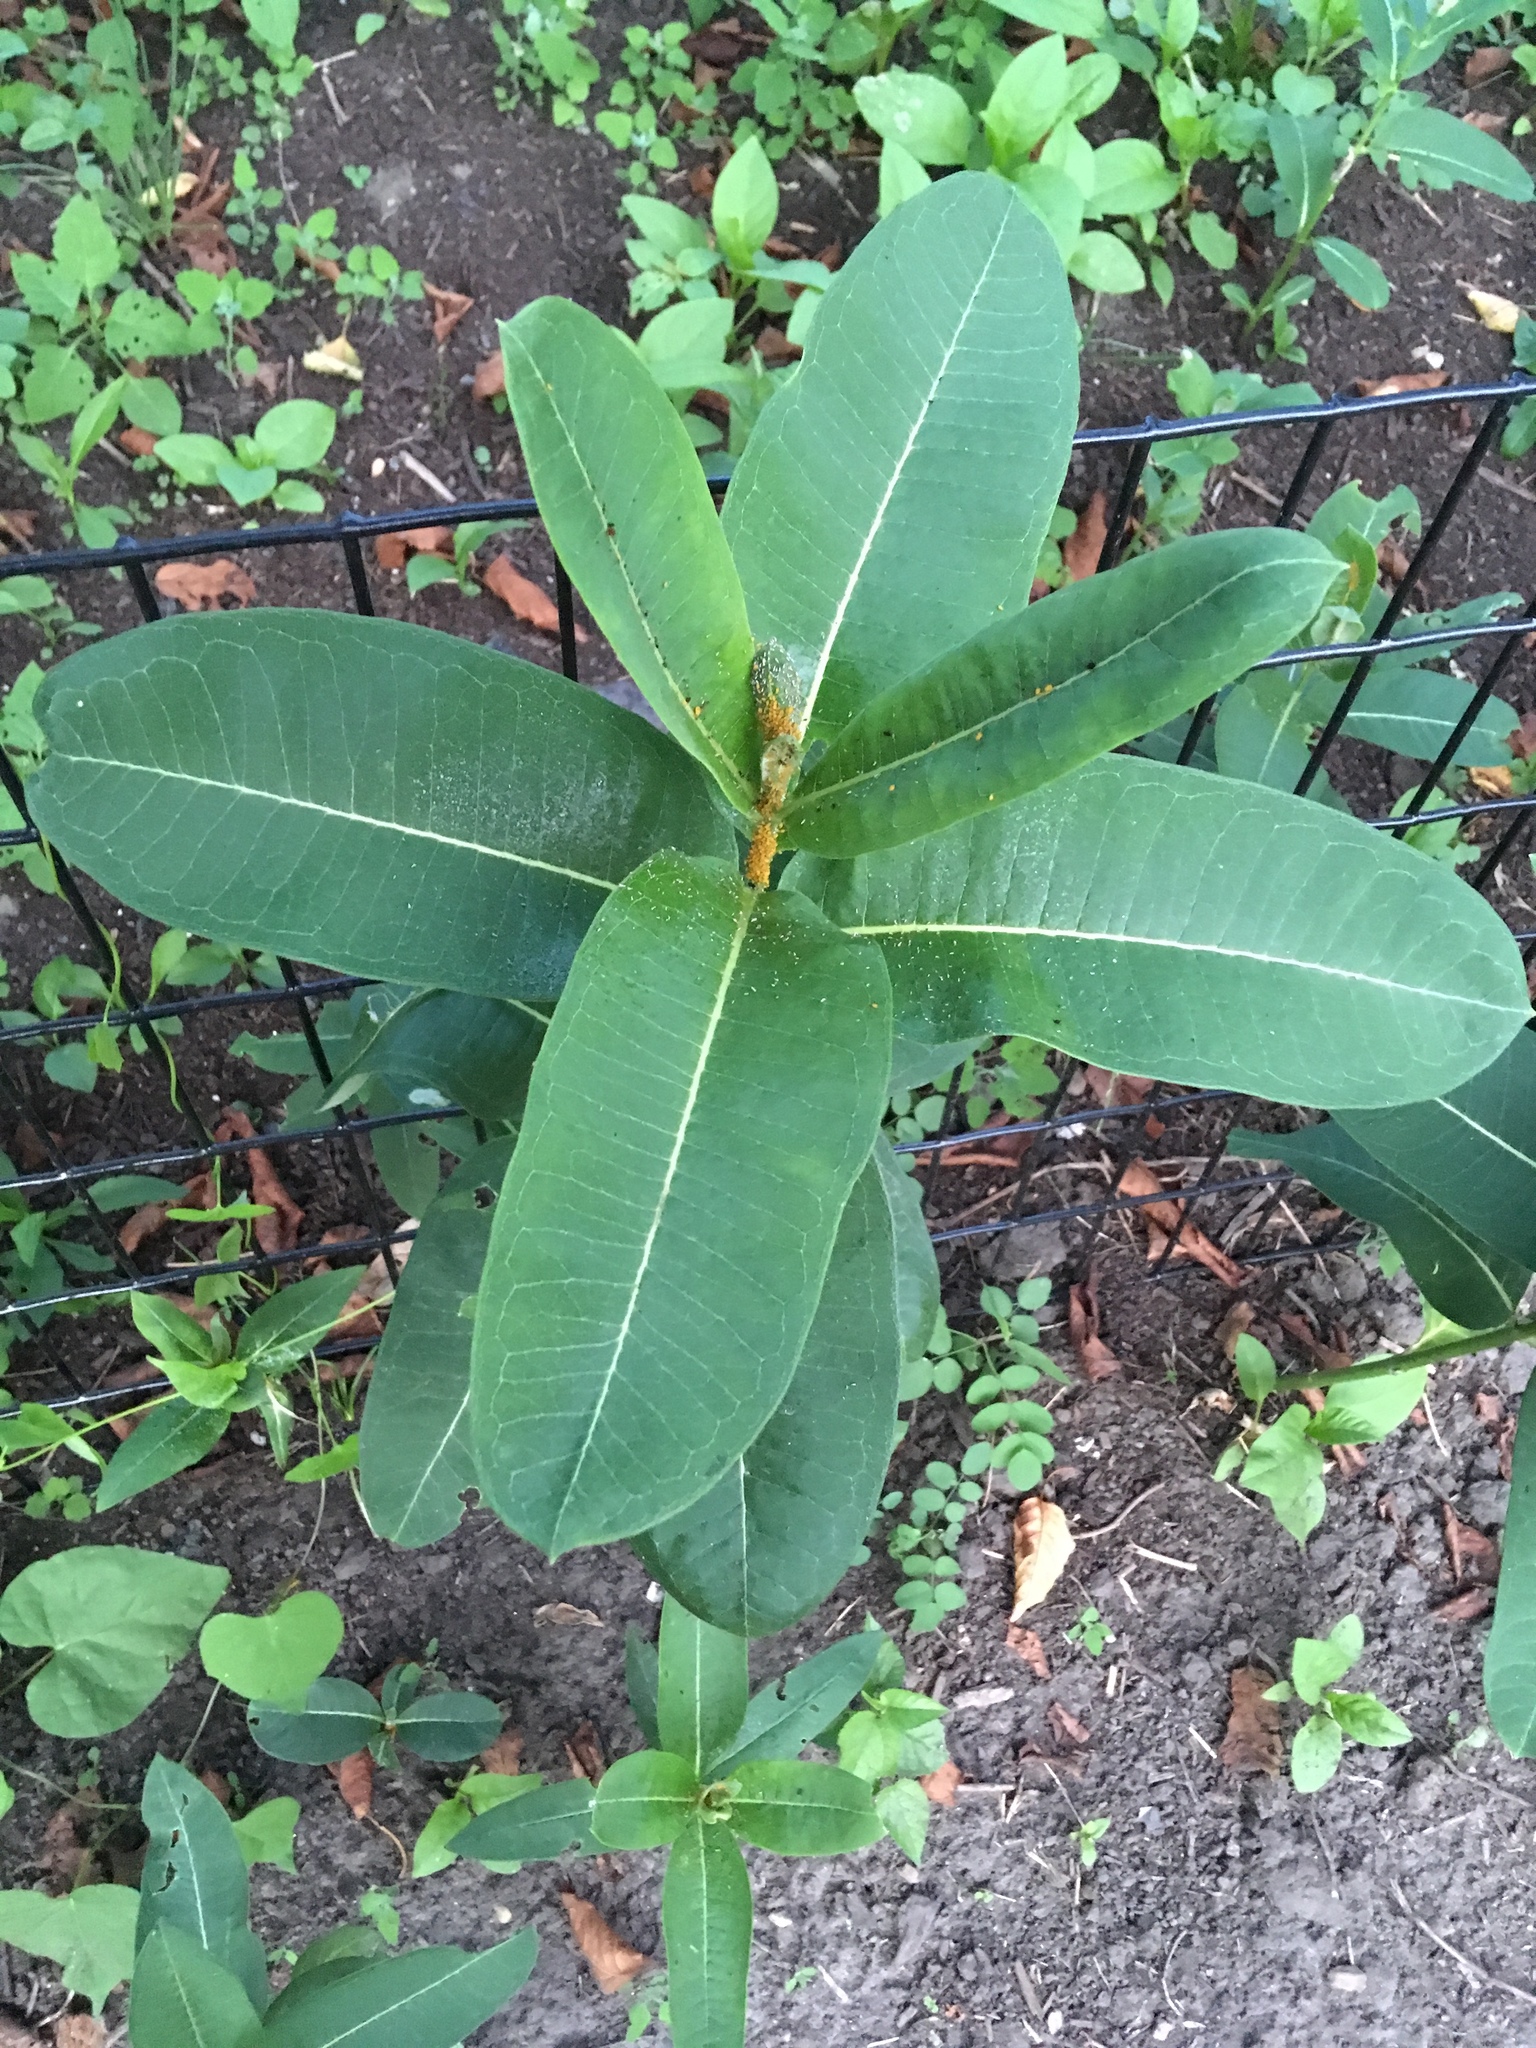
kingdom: Plantae
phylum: Tracheophyta
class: Magnoliopsida
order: Gentianales
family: Apocynaceae
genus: Asclepias
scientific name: Asclepias syriaca
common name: Common milkweed
